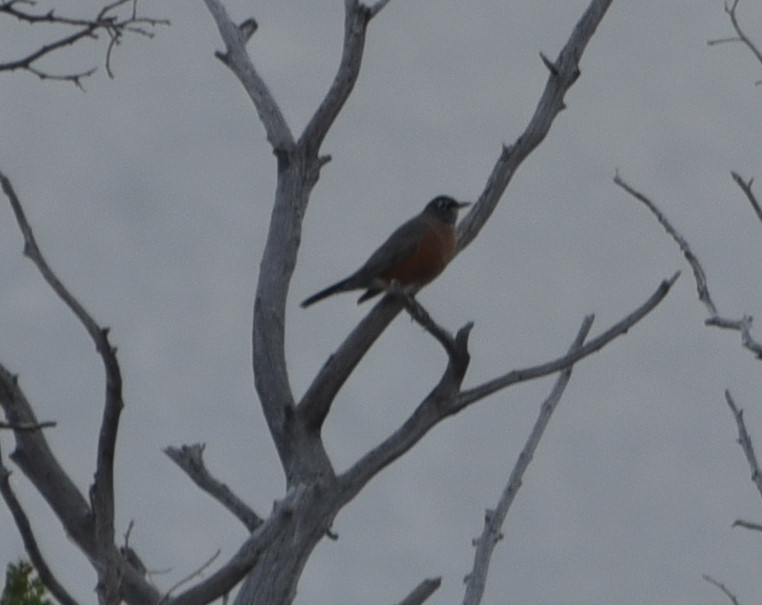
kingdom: Animalia
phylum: Chordata
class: Aves
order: Passeriformes
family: Turdidae
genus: Turdus
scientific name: Turdus migratorius
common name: American robin
